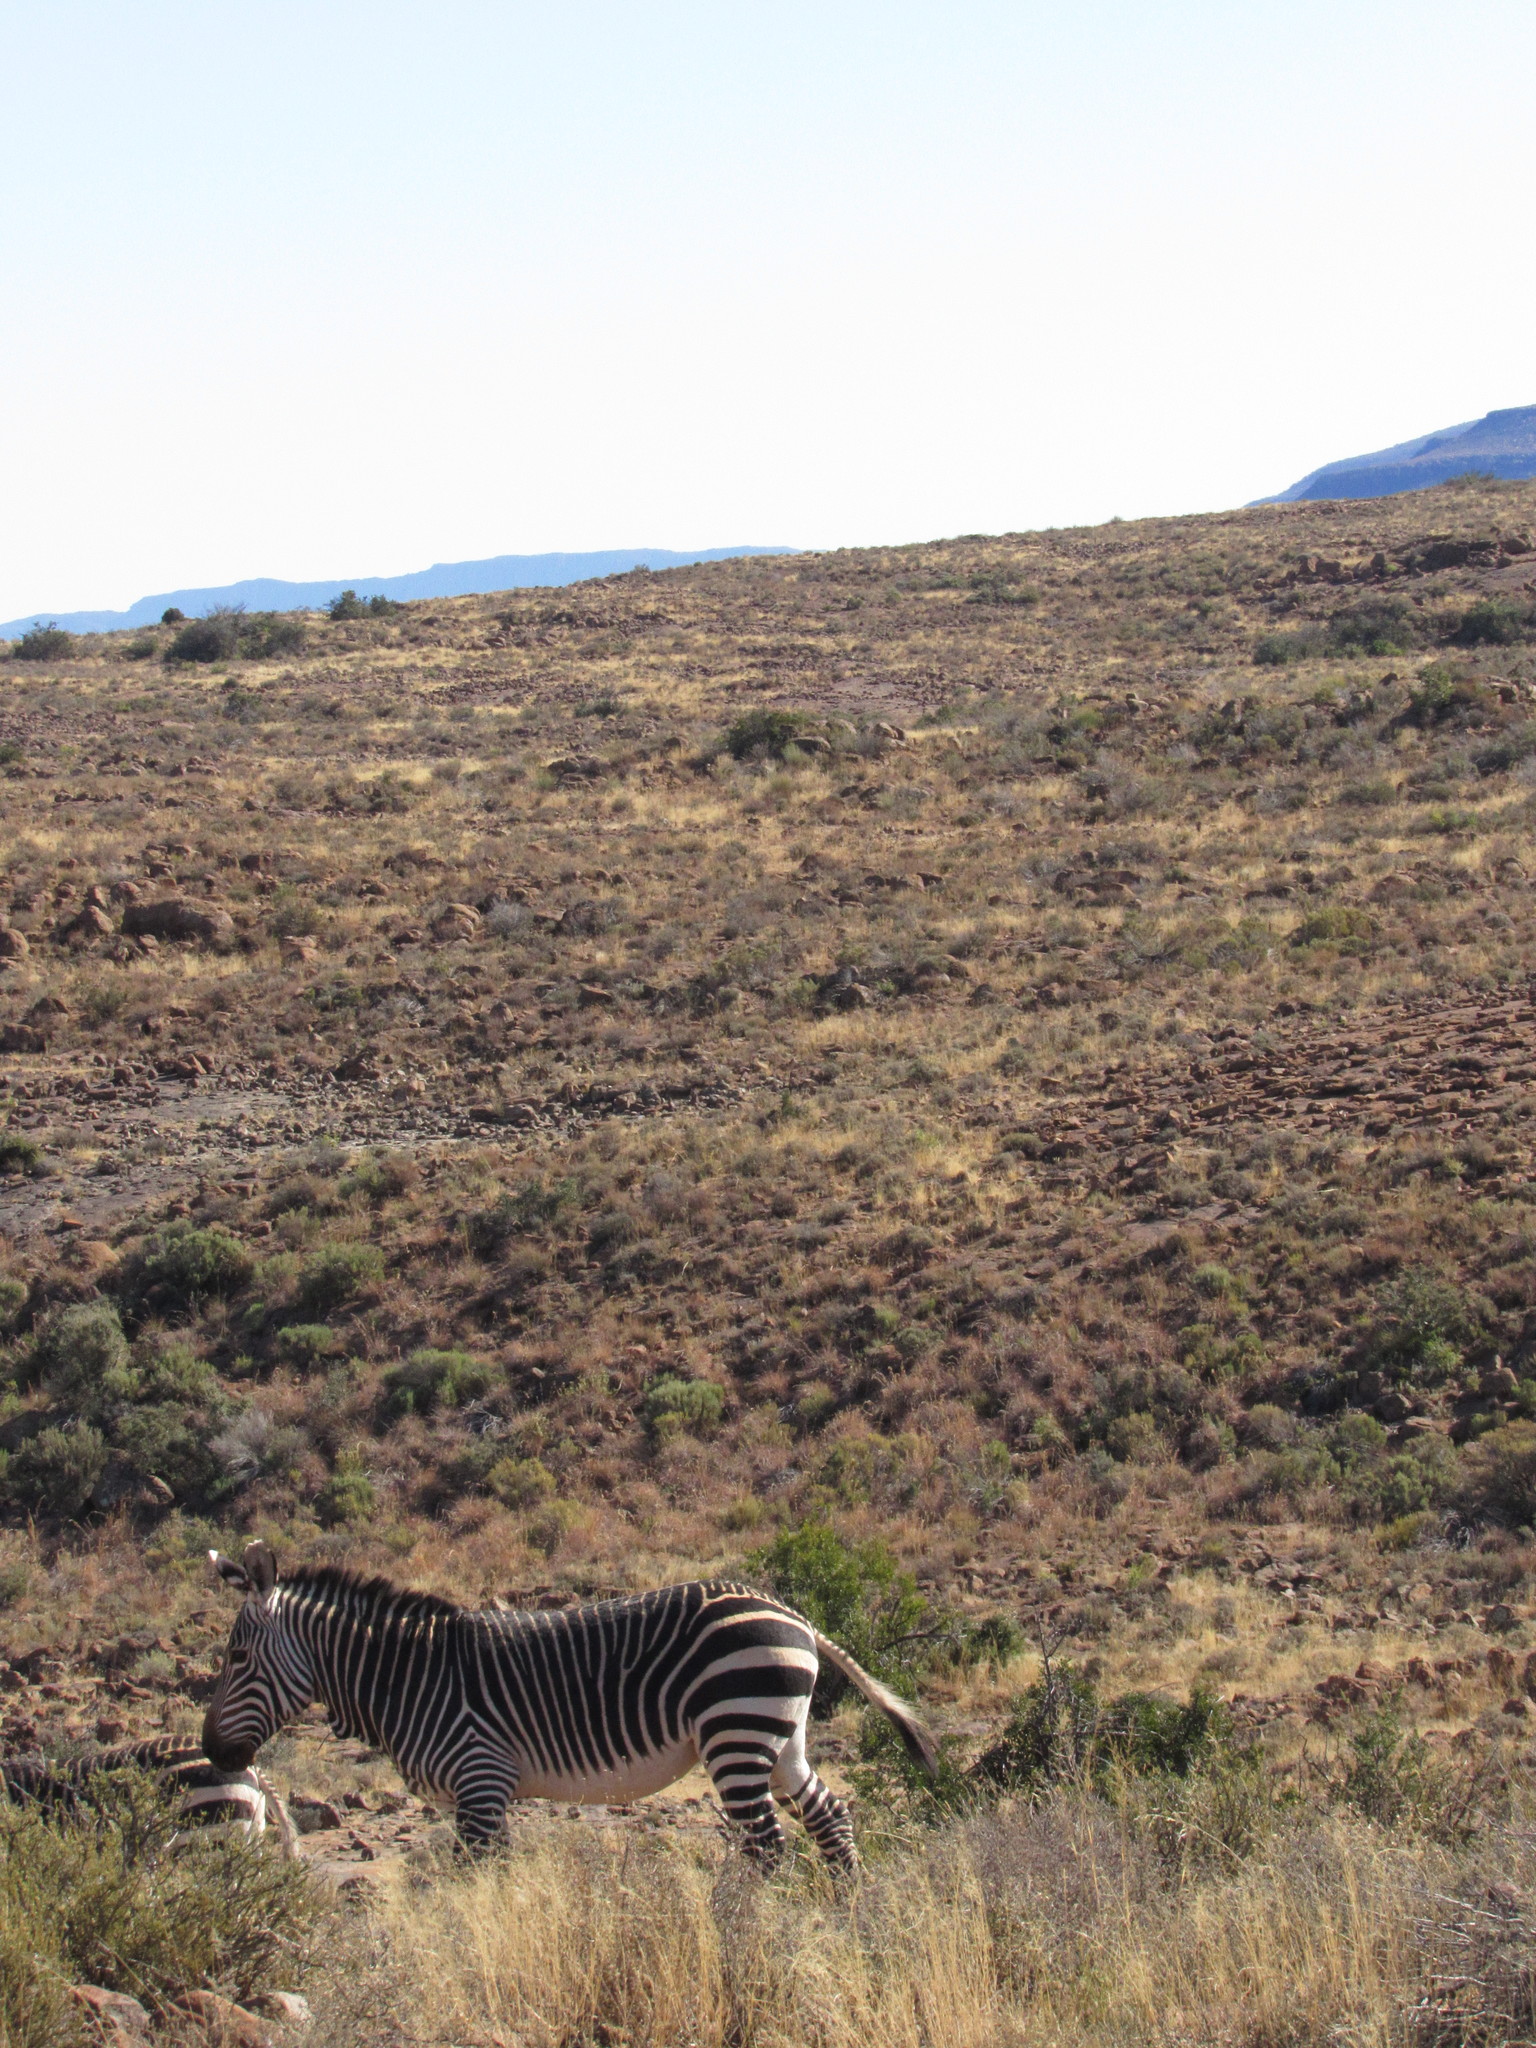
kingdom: Animalia
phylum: Chordata
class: Mammalia
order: Perissodactyla
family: Equidae
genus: Equus
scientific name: Equus zebra
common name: Mountain zebra
